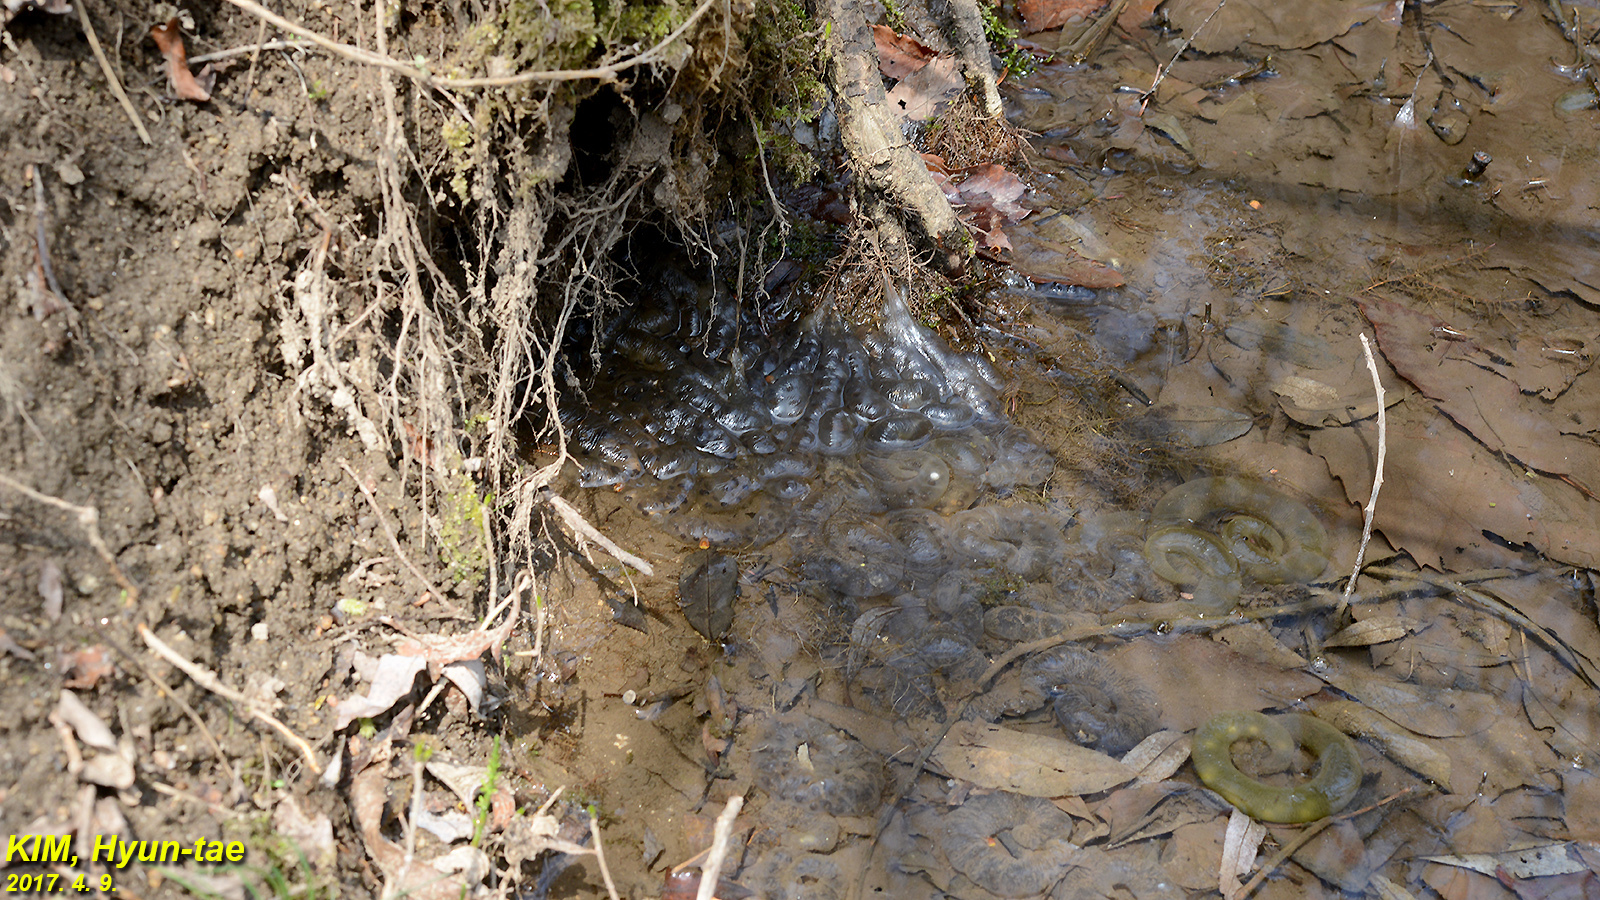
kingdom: Animalia
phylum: Chordata
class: Amphibia
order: Caudata
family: Hynobiidae
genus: Hynobius
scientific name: Hynobius leechii
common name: Gensan salamander
